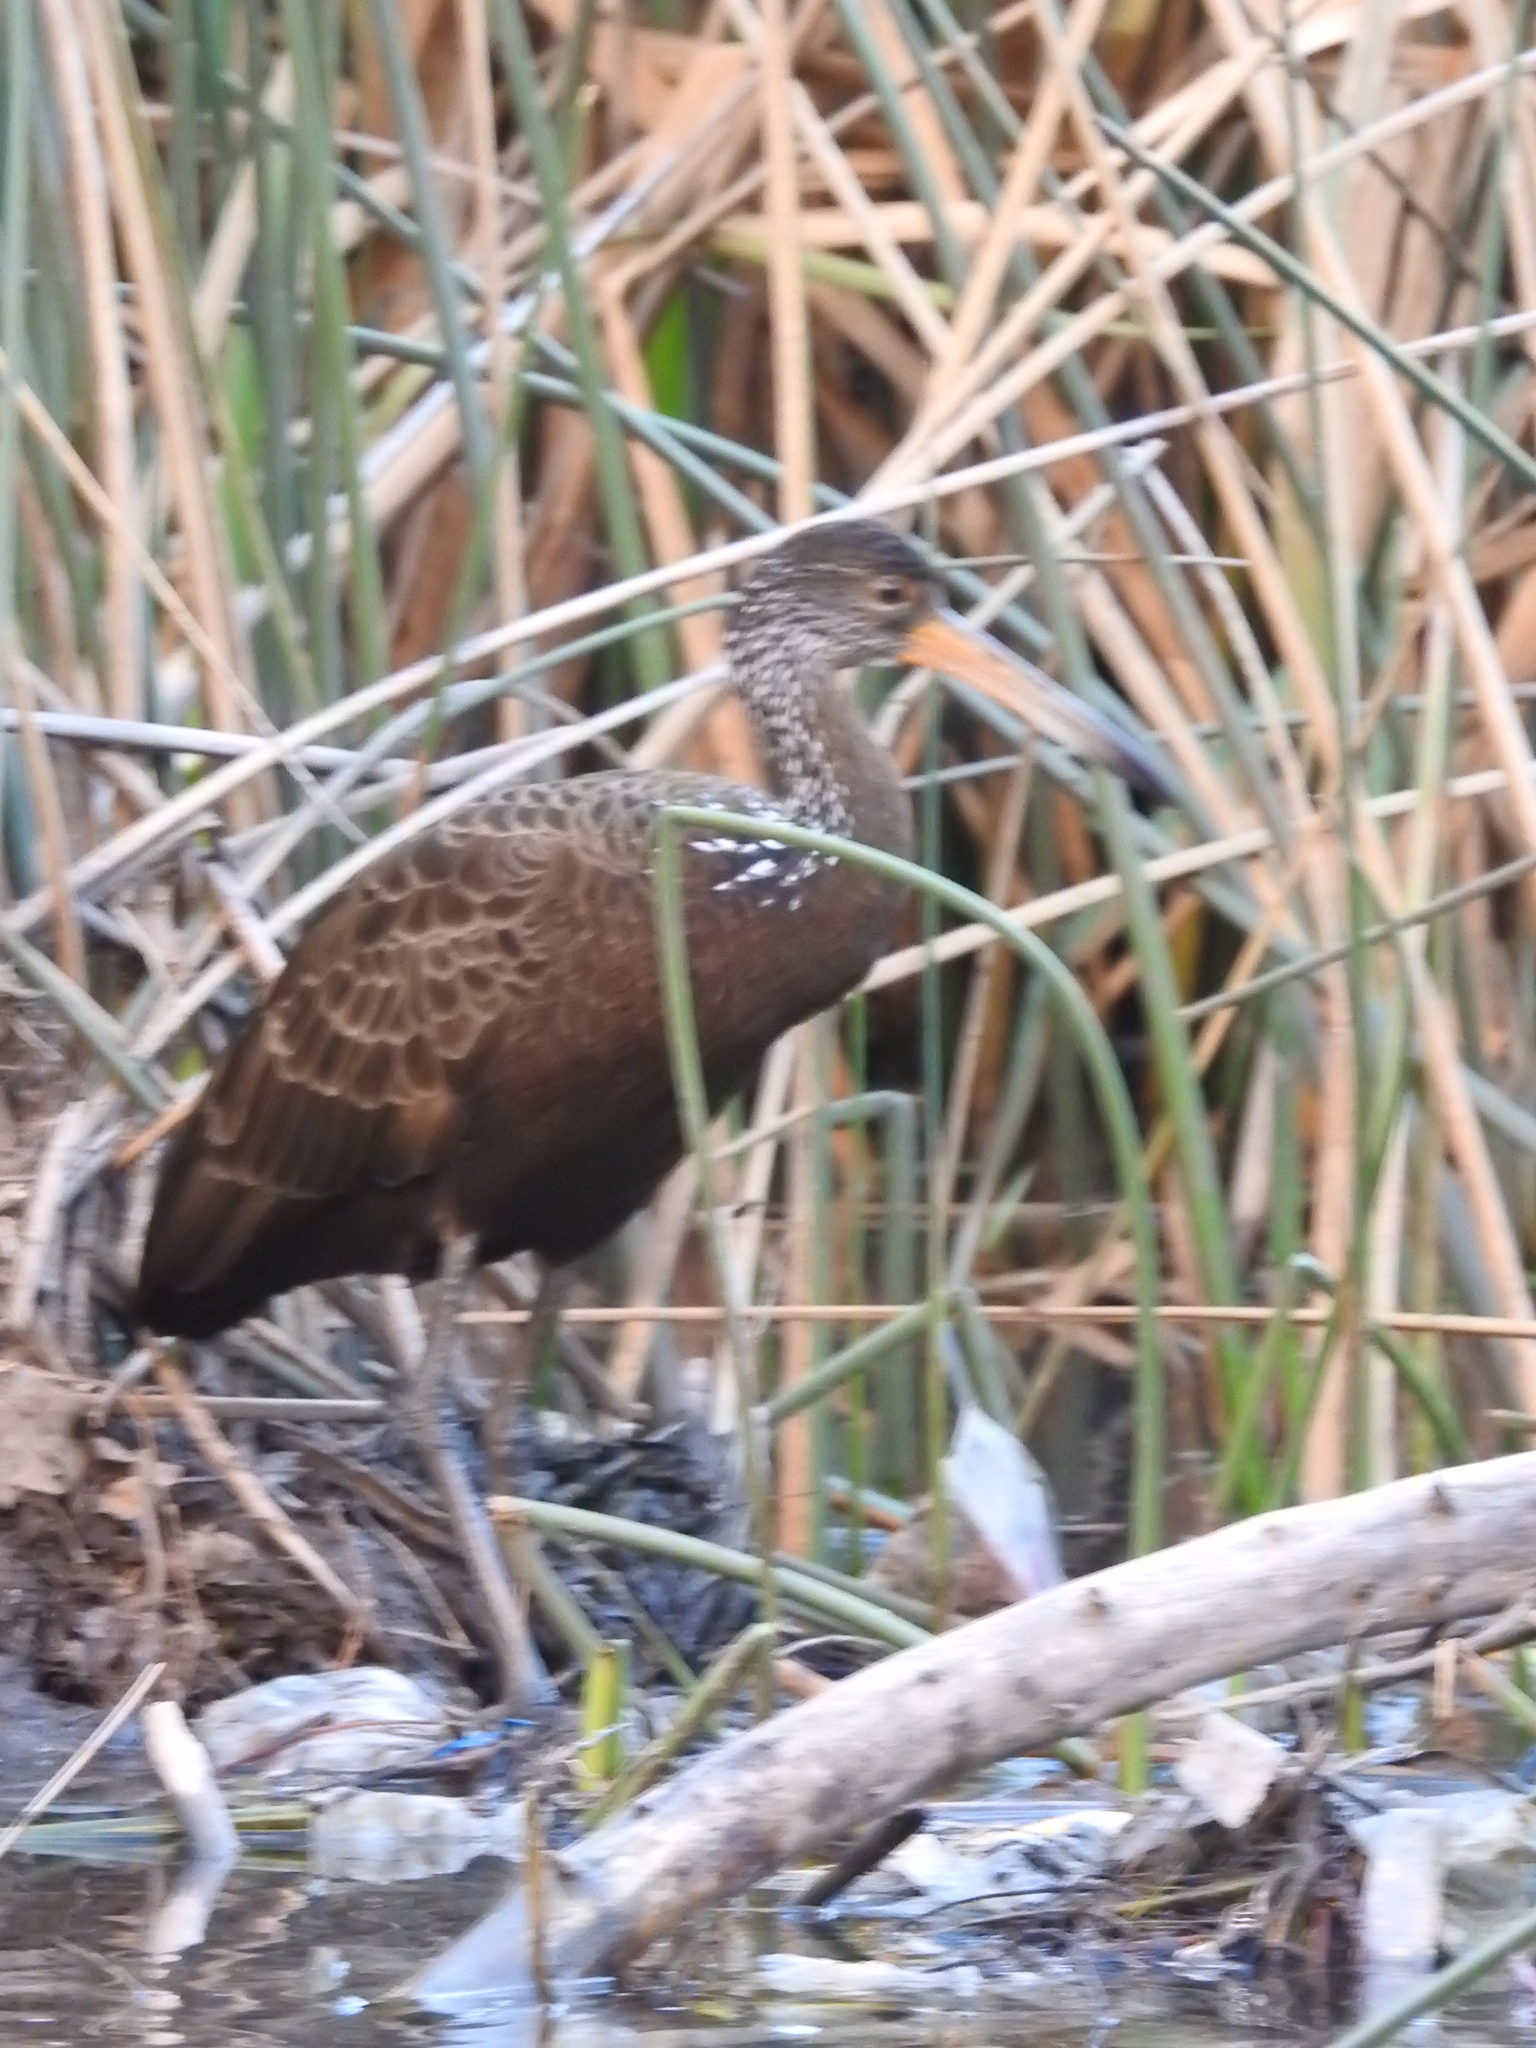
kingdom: Animalia
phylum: Chordata
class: Aves
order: Gruiformes
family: Aramidae
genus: Aramus
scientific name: Aramus guarauna
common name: Limpkin
